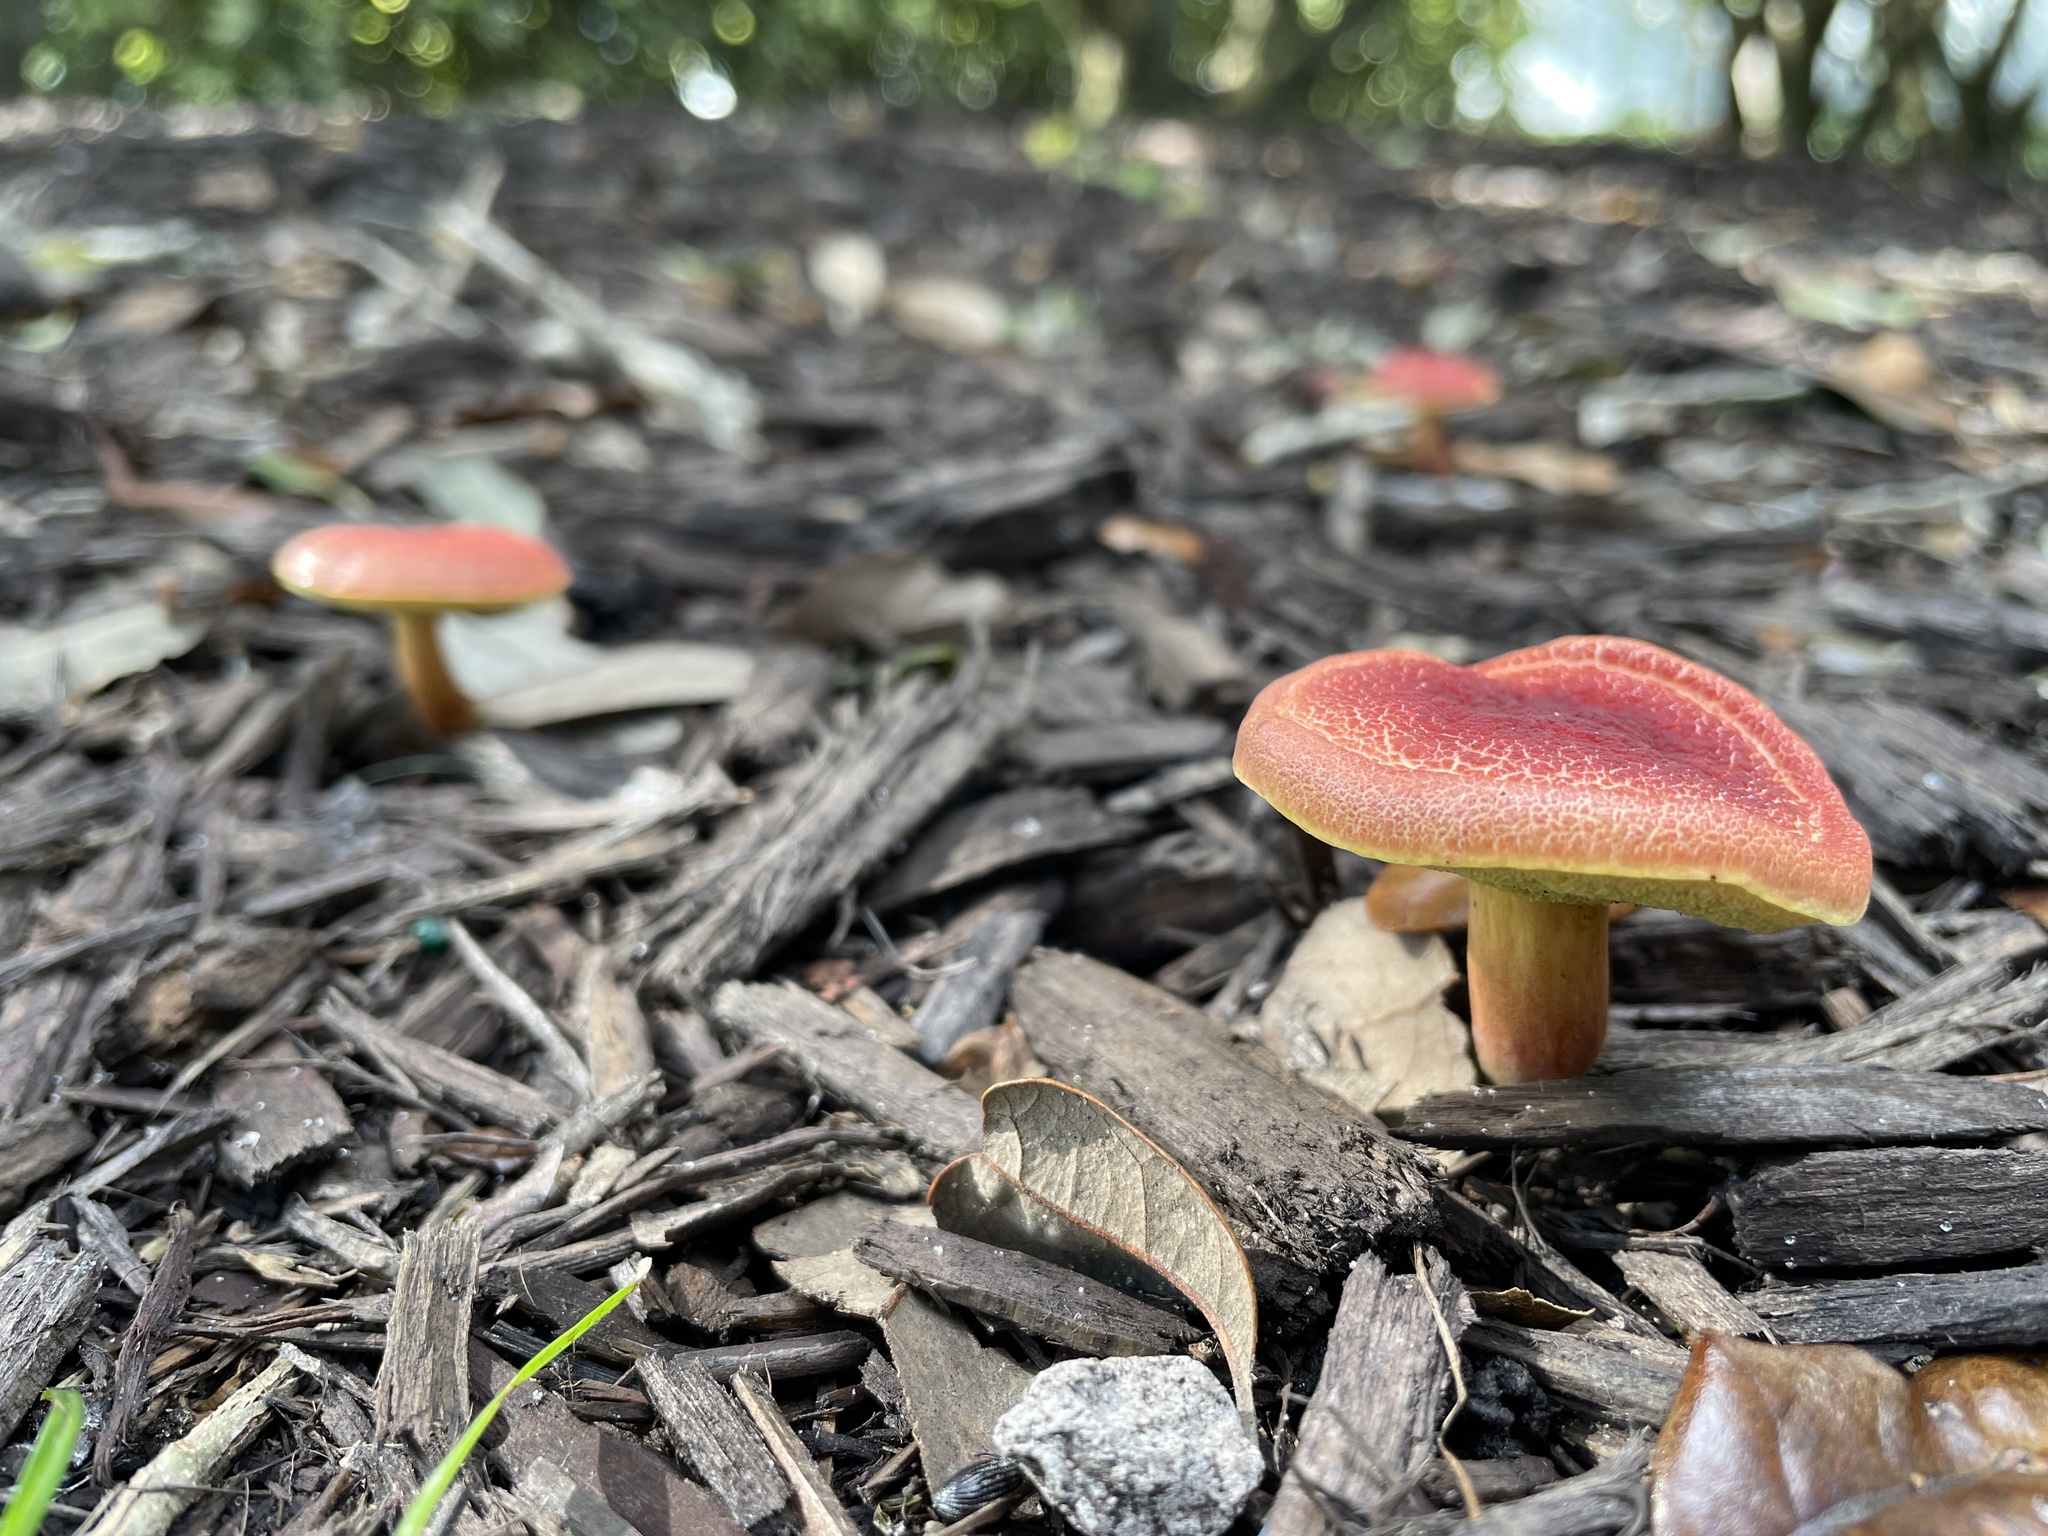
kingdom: Fungi
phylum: Basidiomycota
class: Agaricomycetes
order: Boletales
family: Boletaceae
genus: Hortiboletus
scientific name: Hortiboletus rubellus
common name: Ruby bolete
